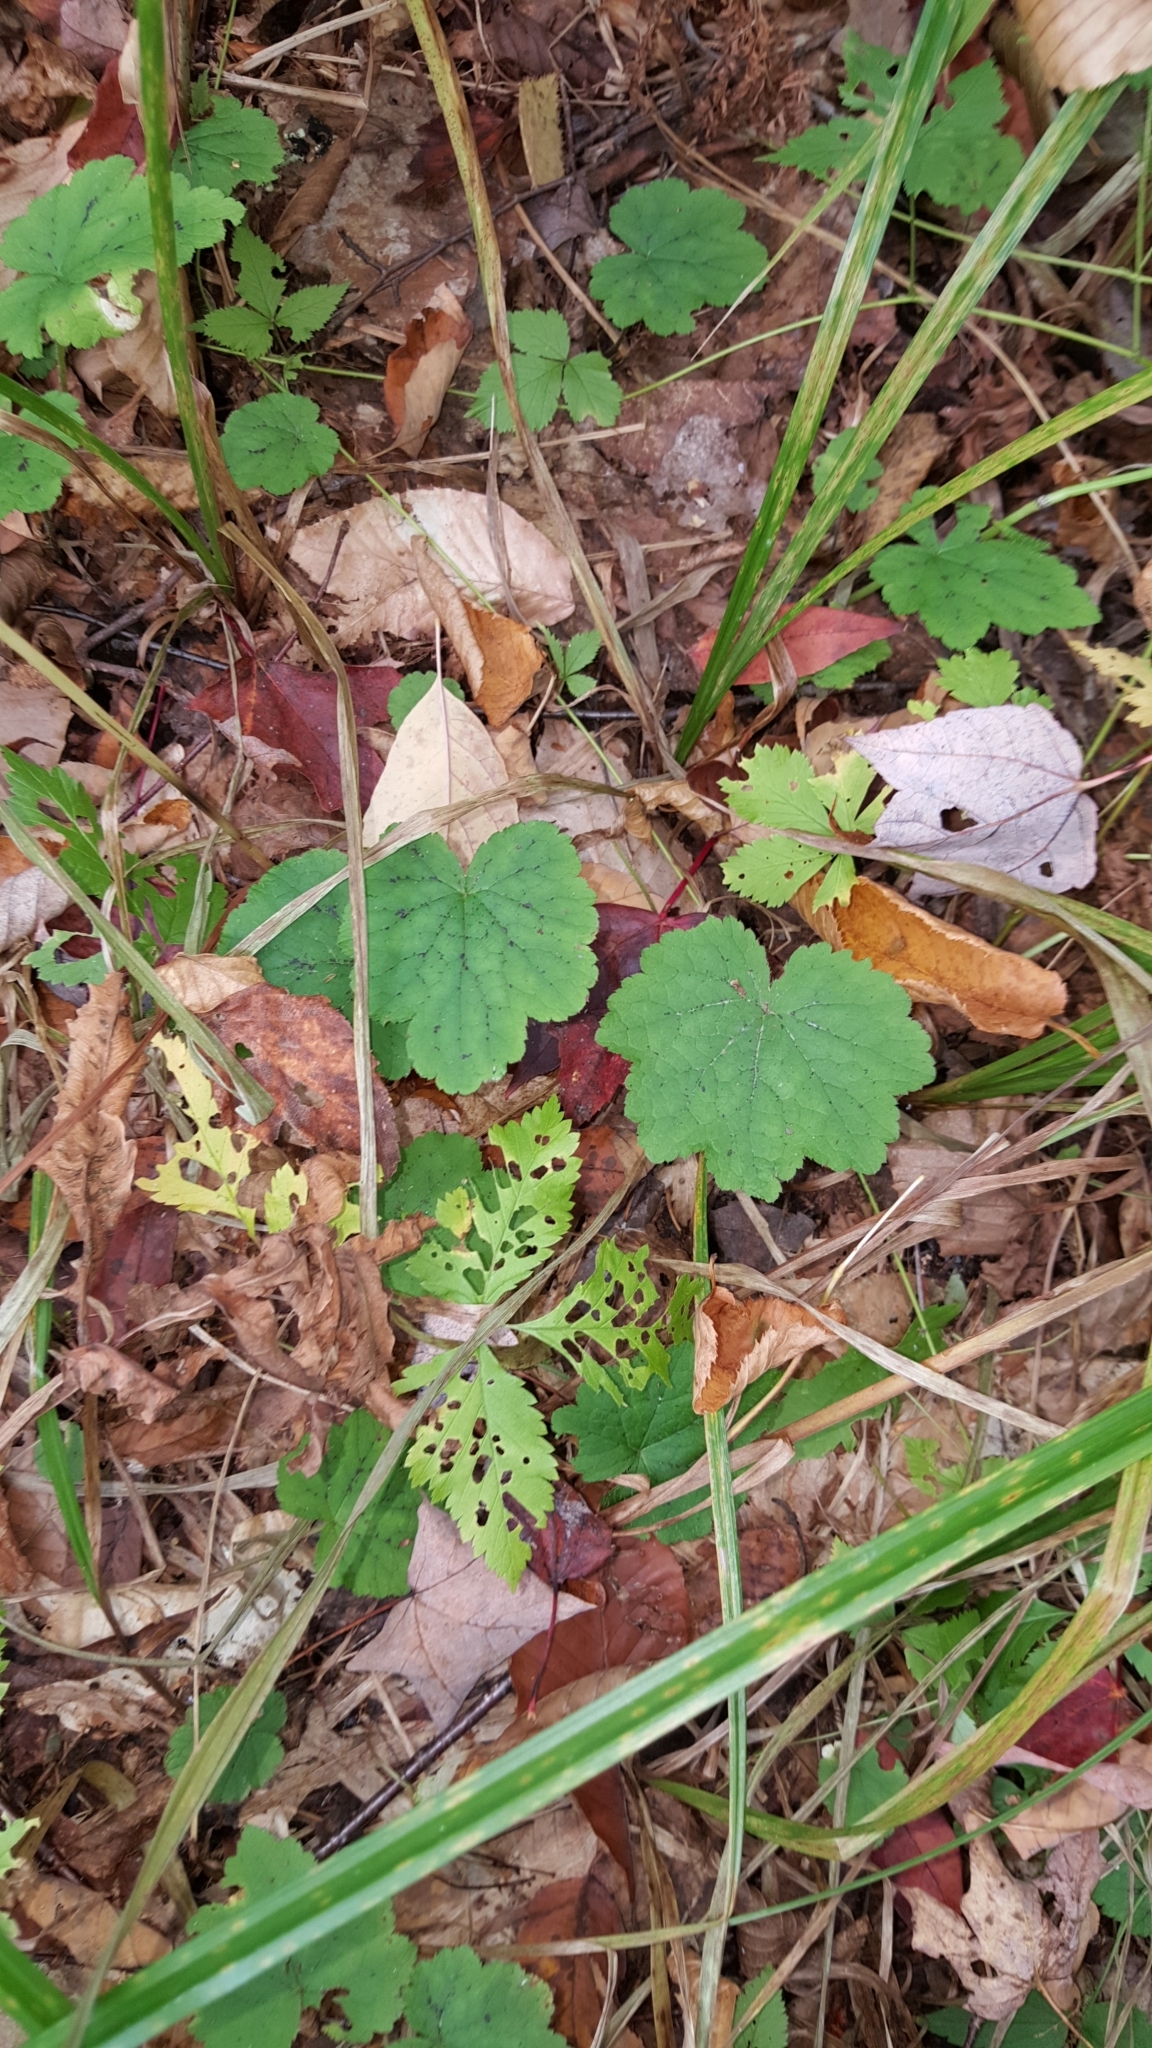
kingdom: Plantae
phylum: Tracheophyta
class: Magnoliopsida
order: Saxifragales
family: Saxifragaceae
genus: Tiarella
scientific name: Tiarella stolonifera
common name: Stoloniferous foamflower
